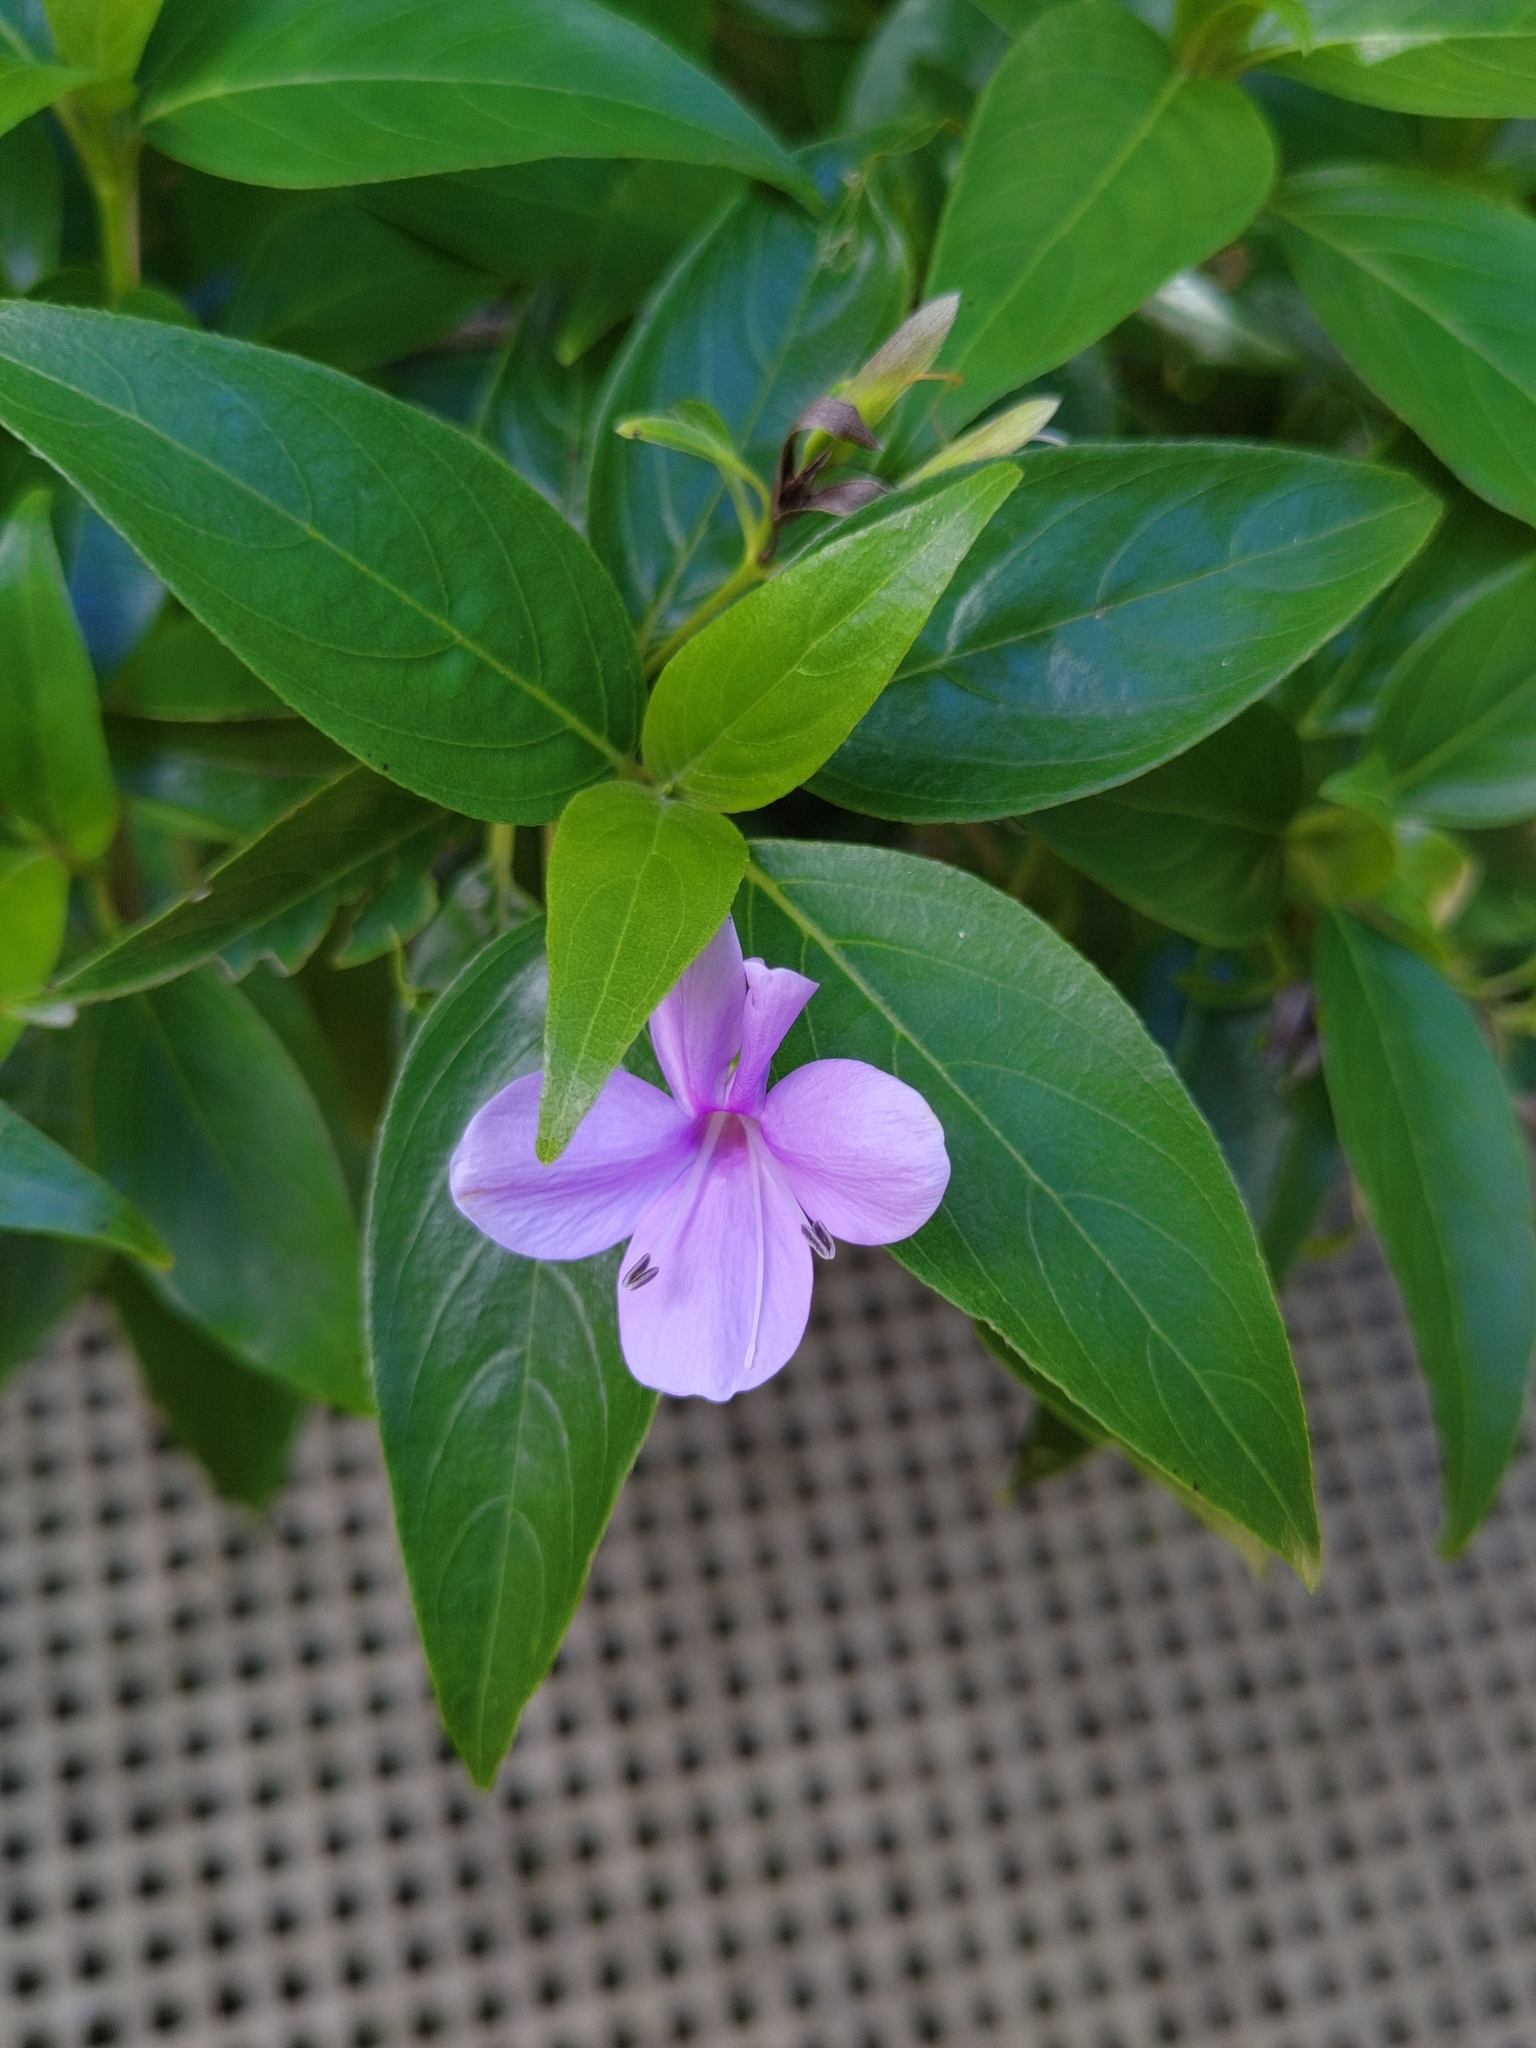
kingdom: Plantae
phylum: Tracheophyta
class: Magnoliopsida
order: Lamiales
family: Acanthaceae
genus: Barleria
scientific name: Barleria observatrix
